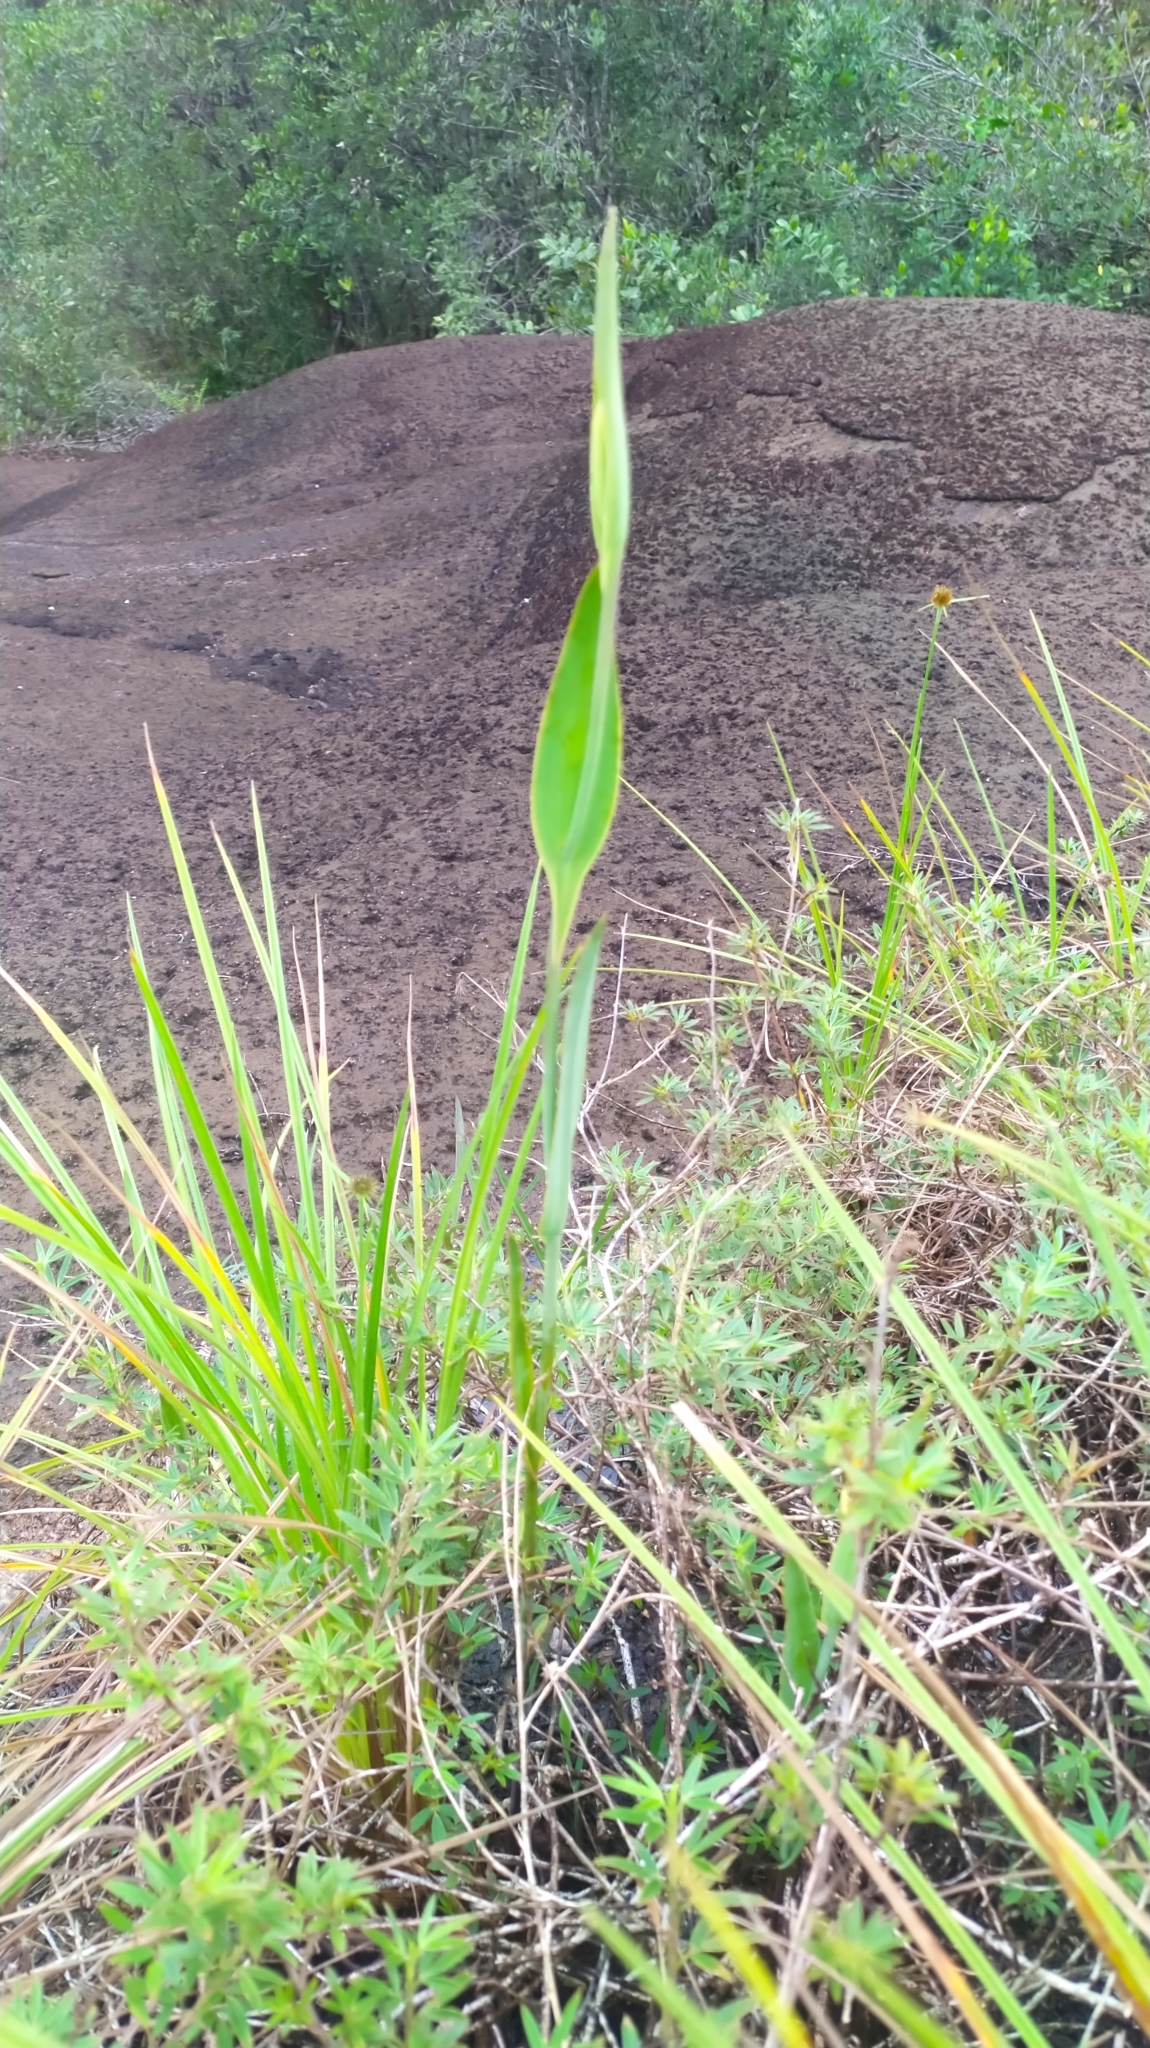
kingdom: Plantae
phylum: Tracheophyta
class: Liliopsida
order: Asparagales
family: Orchidaceae
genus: Cleistes
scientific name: Cleistes grandiflora
